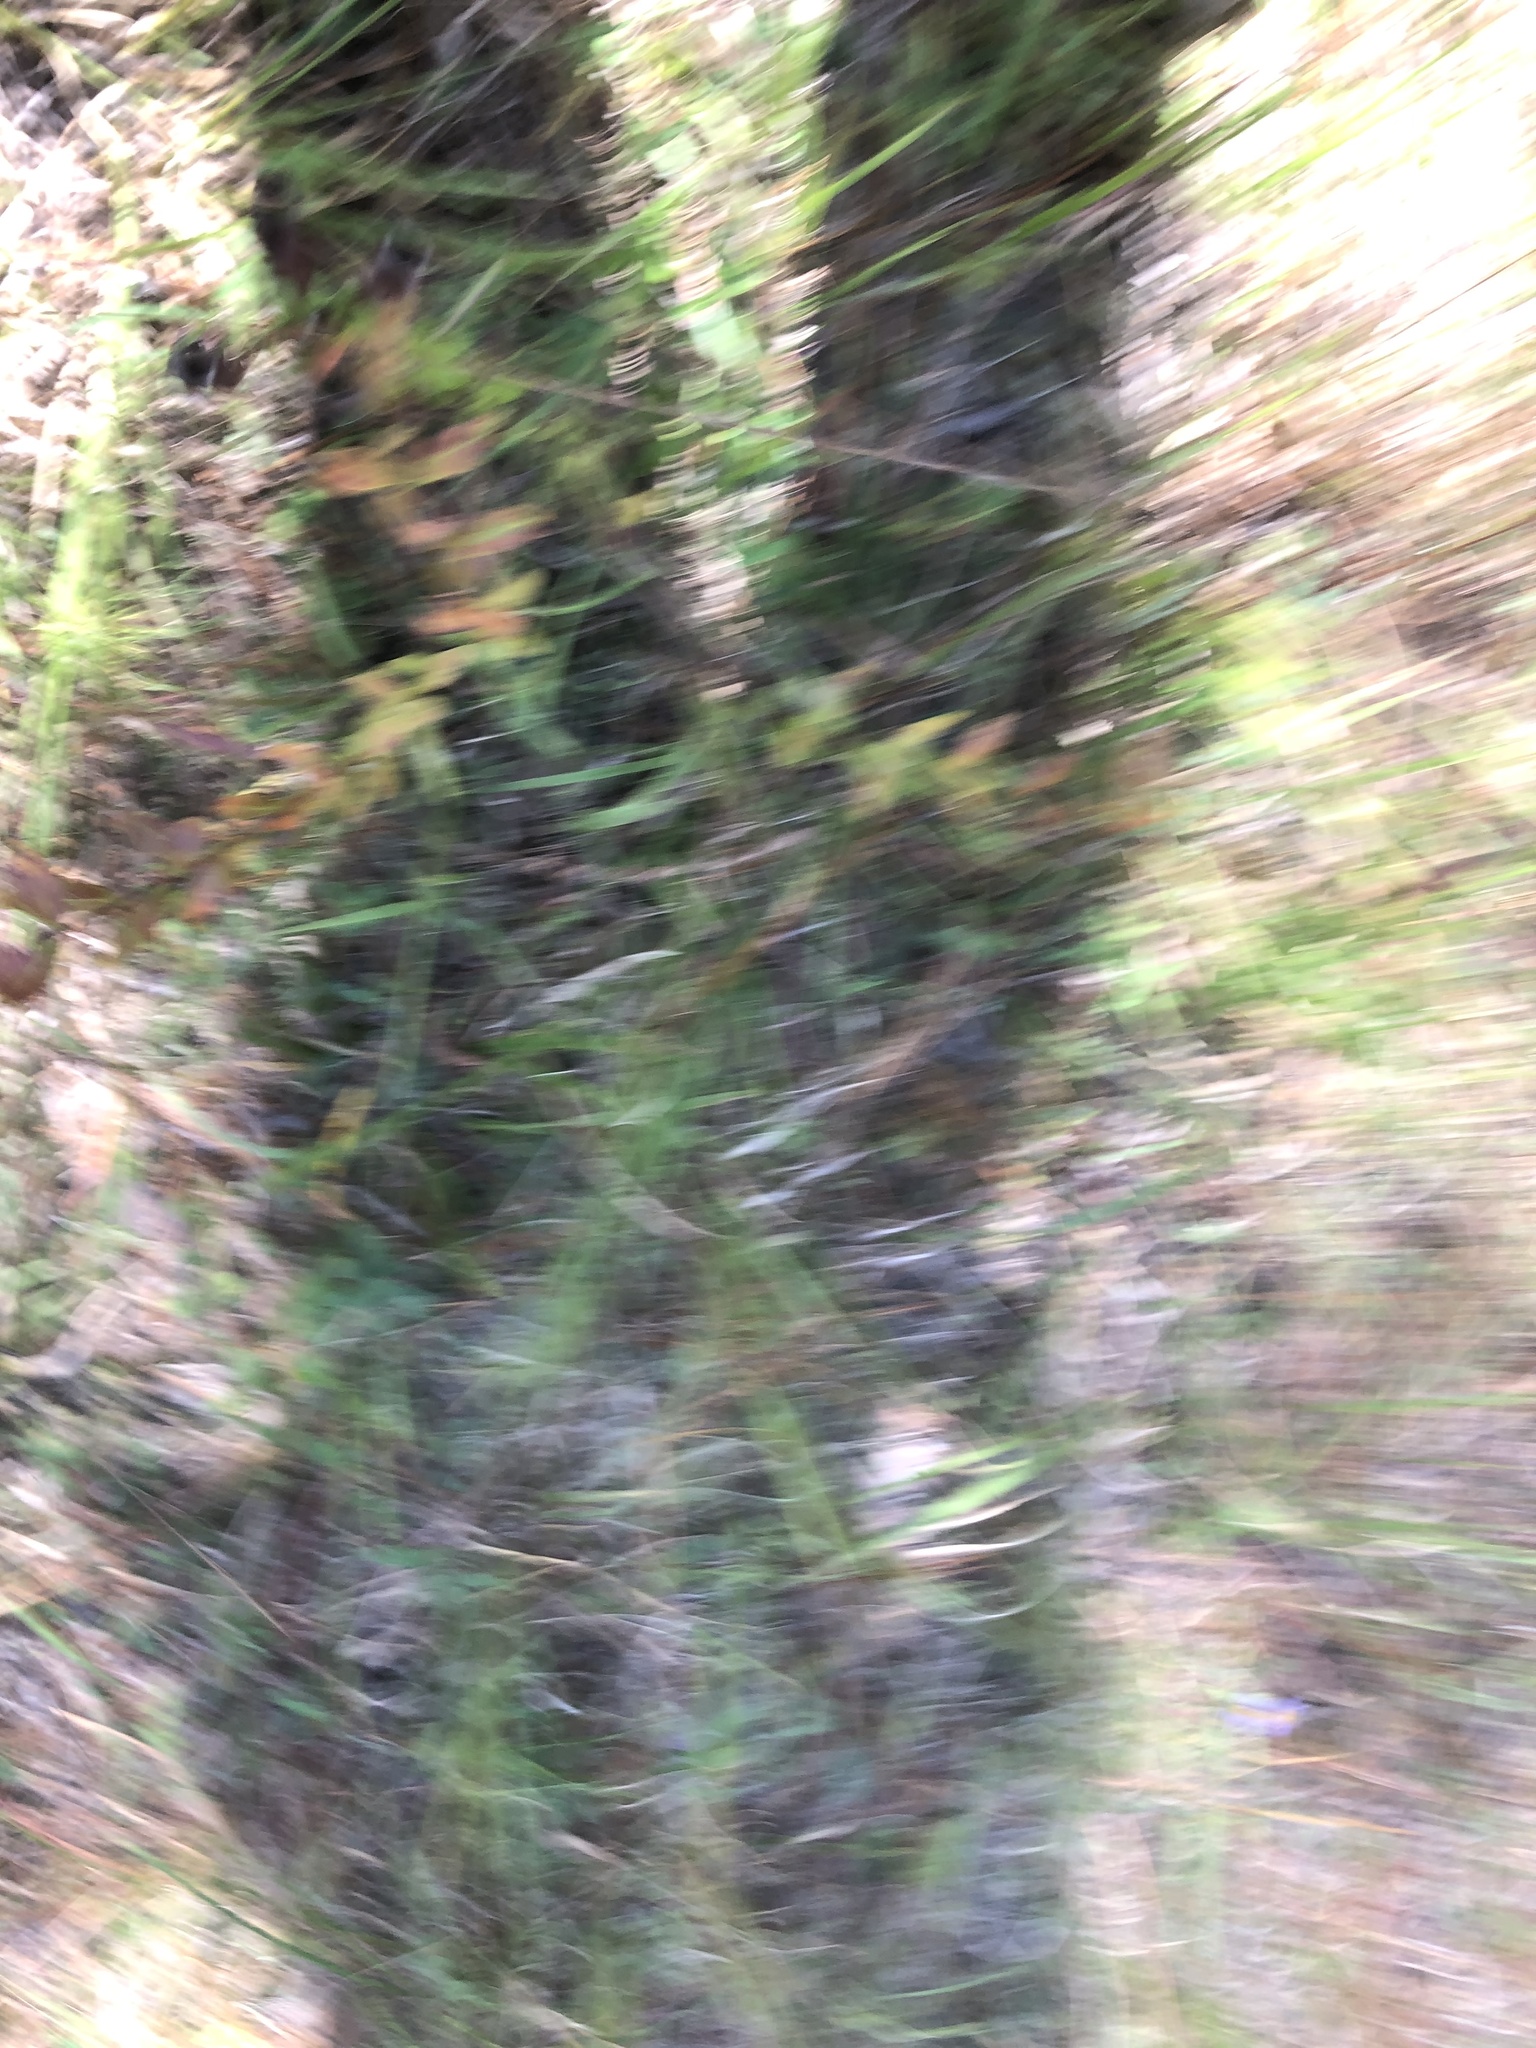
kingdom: Plantae
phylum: Tracheophyta
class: Magnoliopsida
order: Myrtales
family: Melastomataceae
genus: Rhexia
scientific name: Rhexia alifanus
